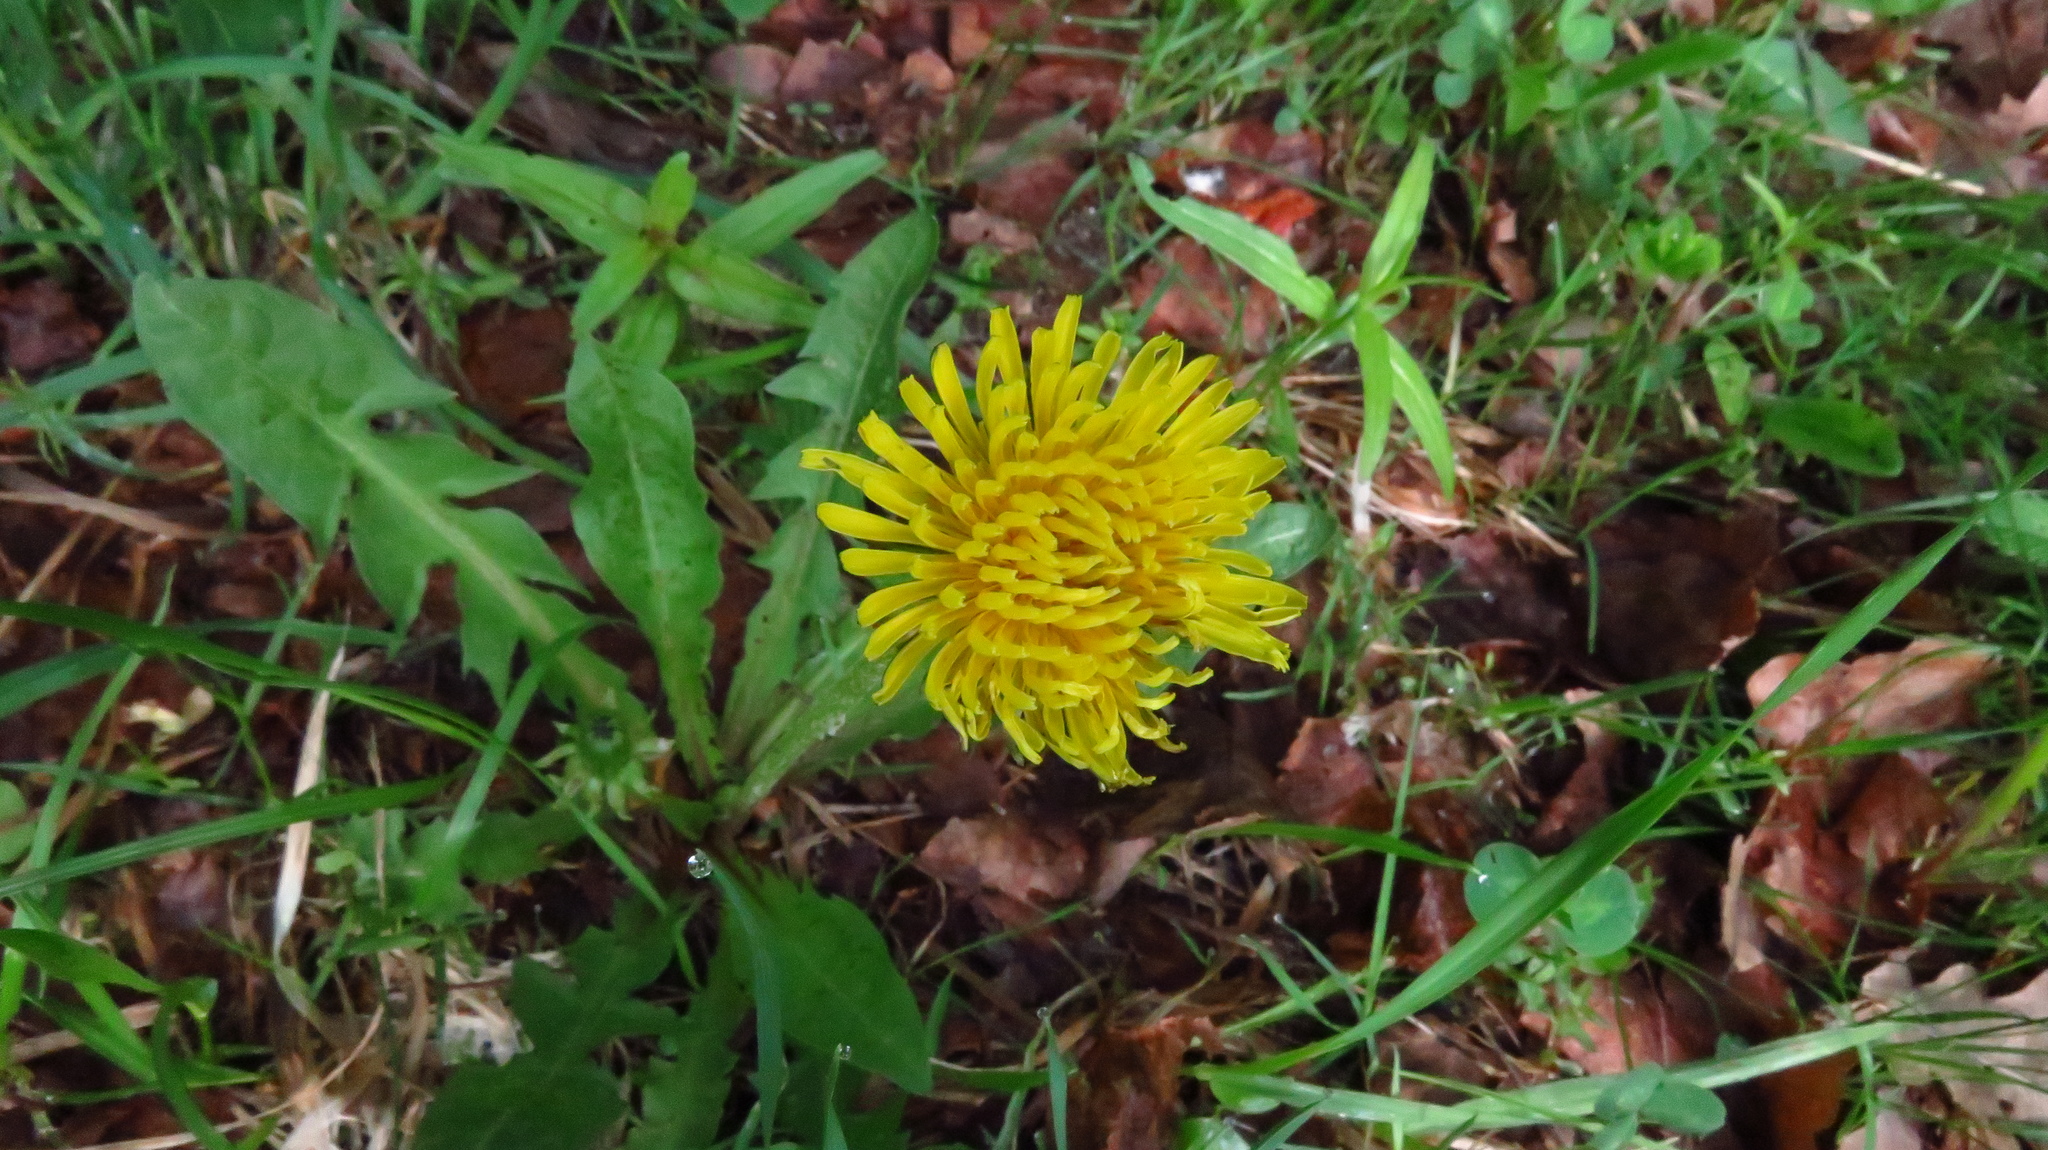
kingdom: Plantae
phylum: Tracheophyta
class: Magnoliopsida
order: Asterales
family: Asteraceae
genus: Taraxacum
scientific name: Taraxacum officinale
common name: Common dandelion
